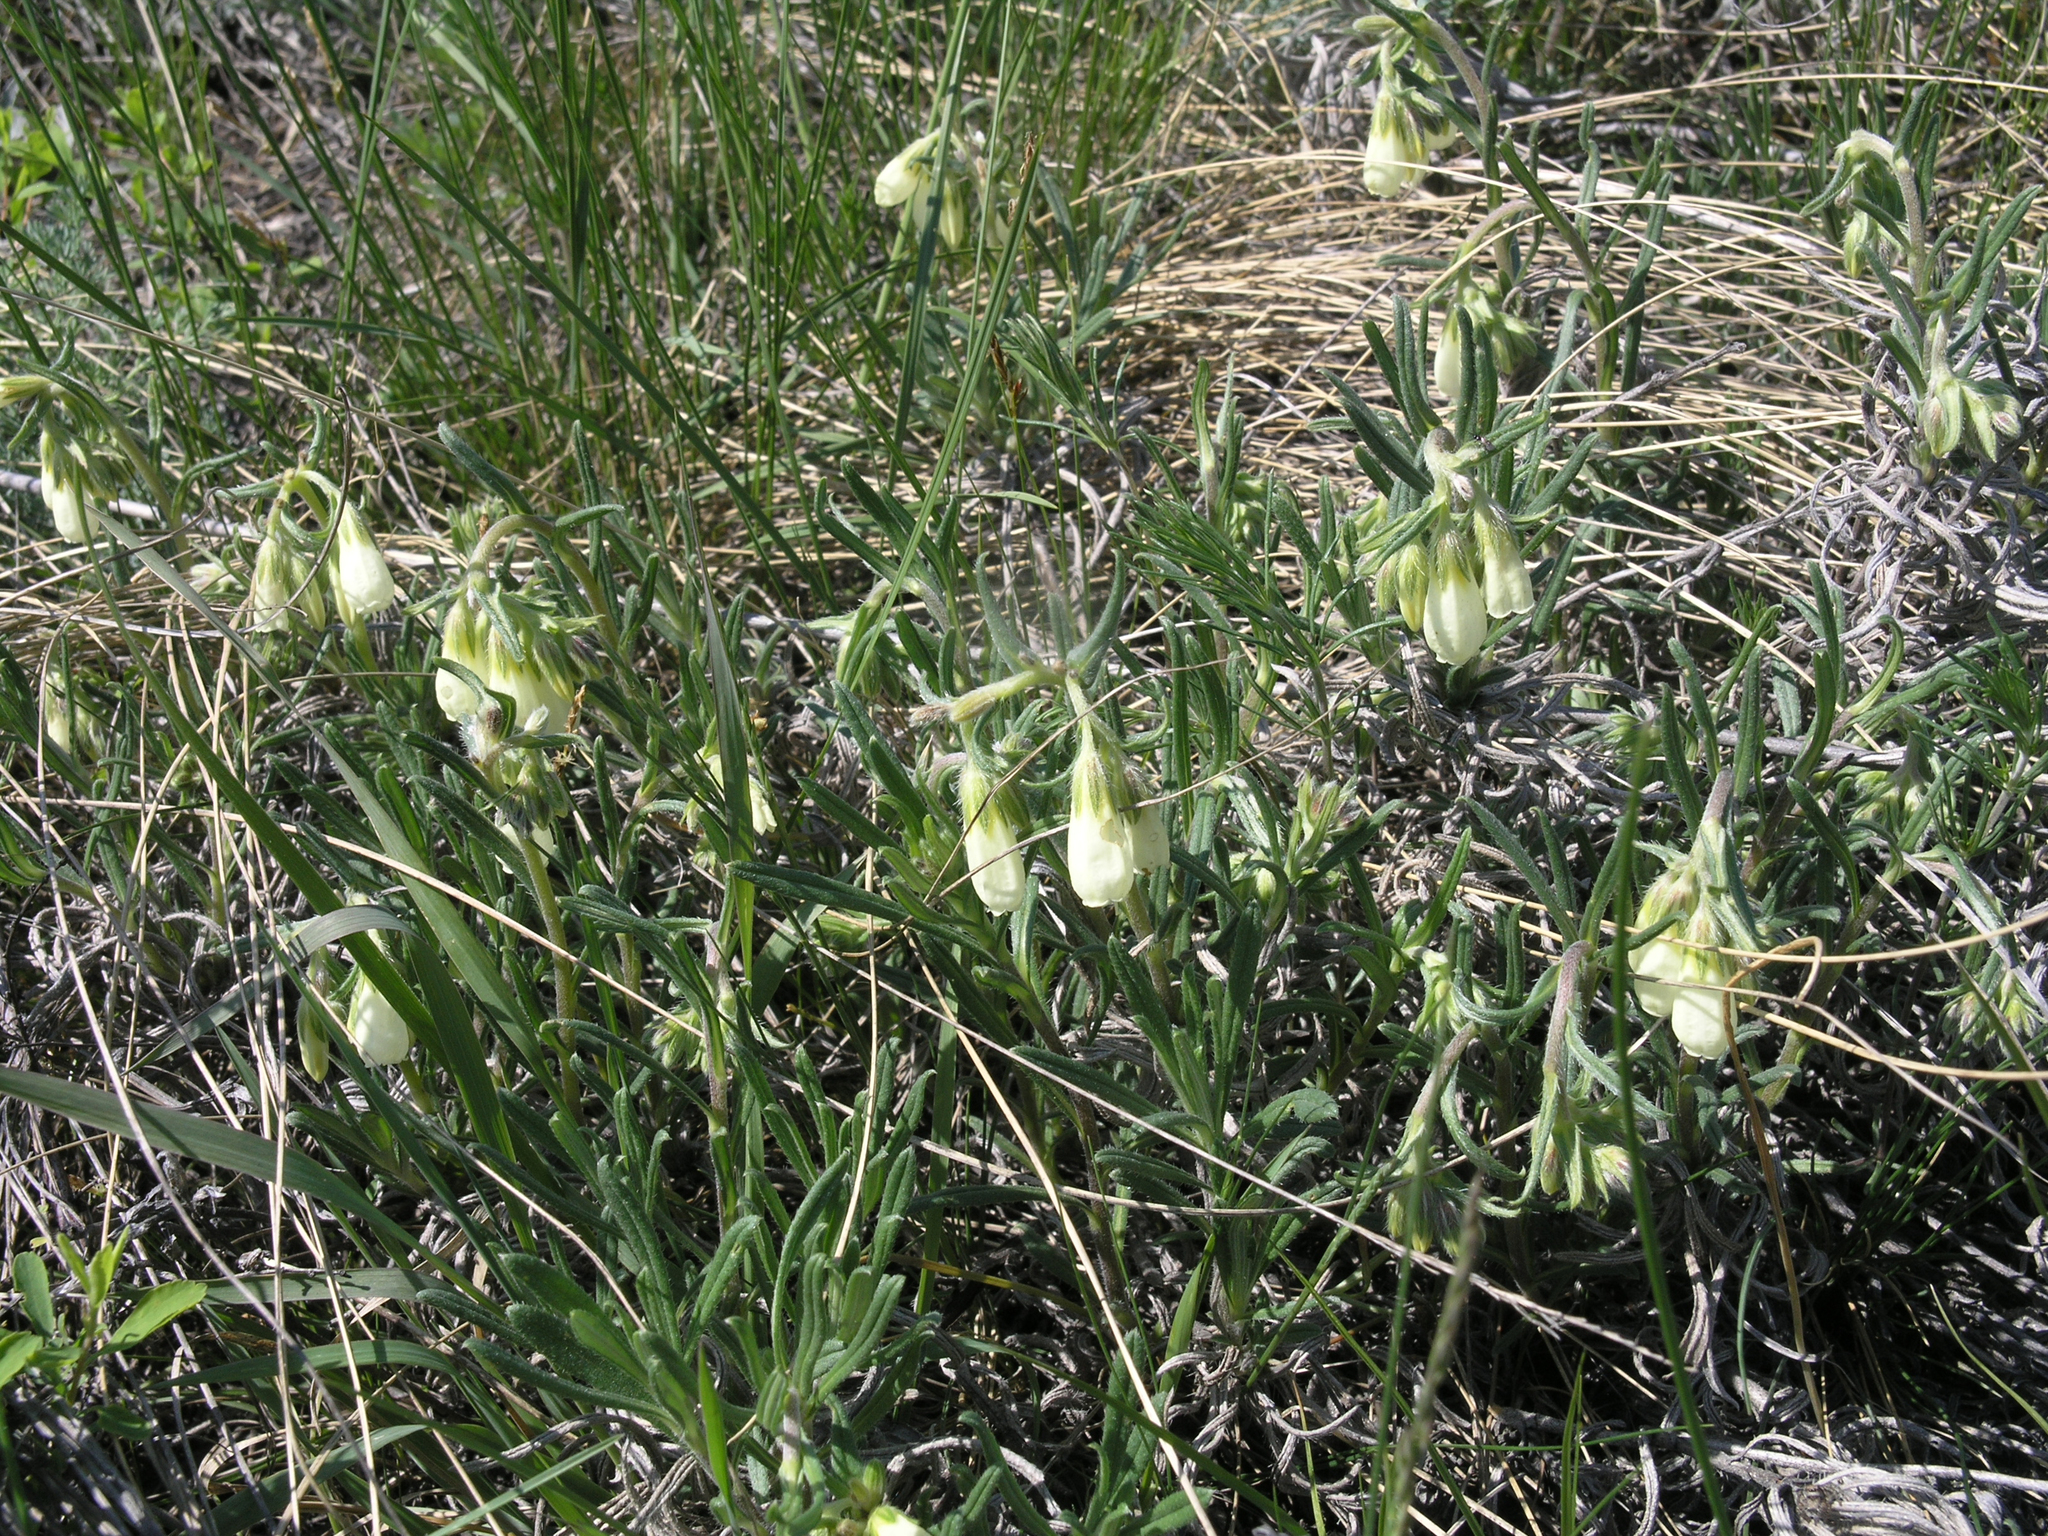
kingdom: Plantae
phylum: Tracheophyta
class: Magnoliopsida
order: Boraginales
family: Boraginaceae
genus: Onosma
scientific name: Onosma simplicissima
